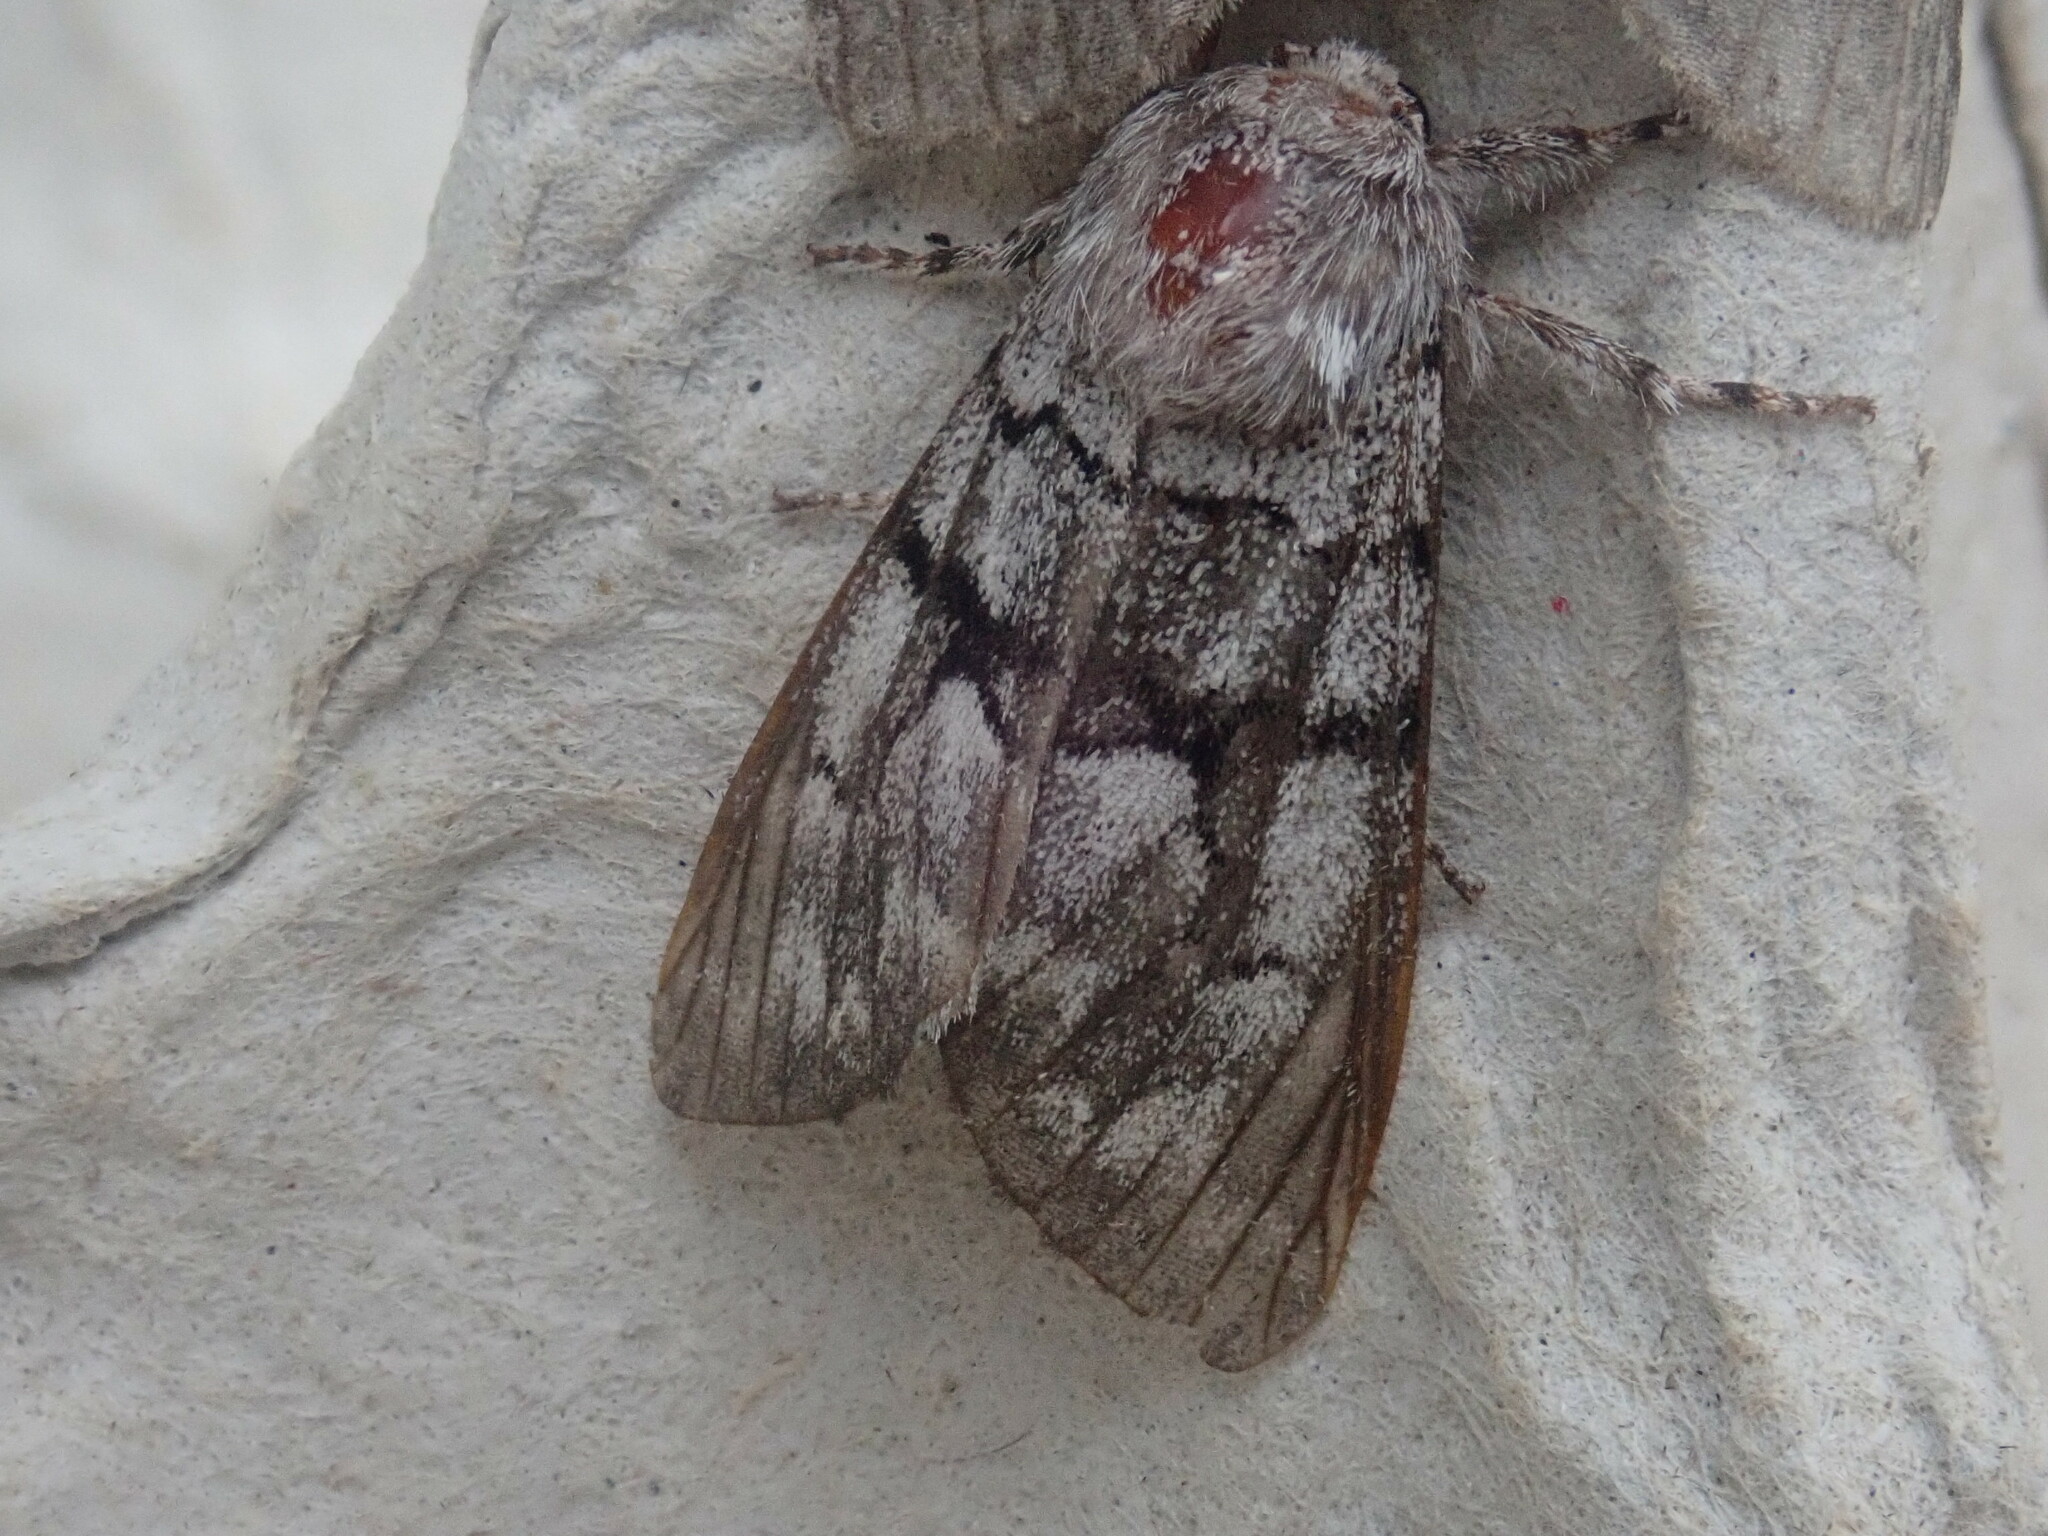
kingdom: Animalia
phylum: Arthropoda
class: Insecta
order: Lepidoptera
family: Noctuidae
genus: Panthea
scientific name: Panthea furcilla
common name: Eastern panthea moth
